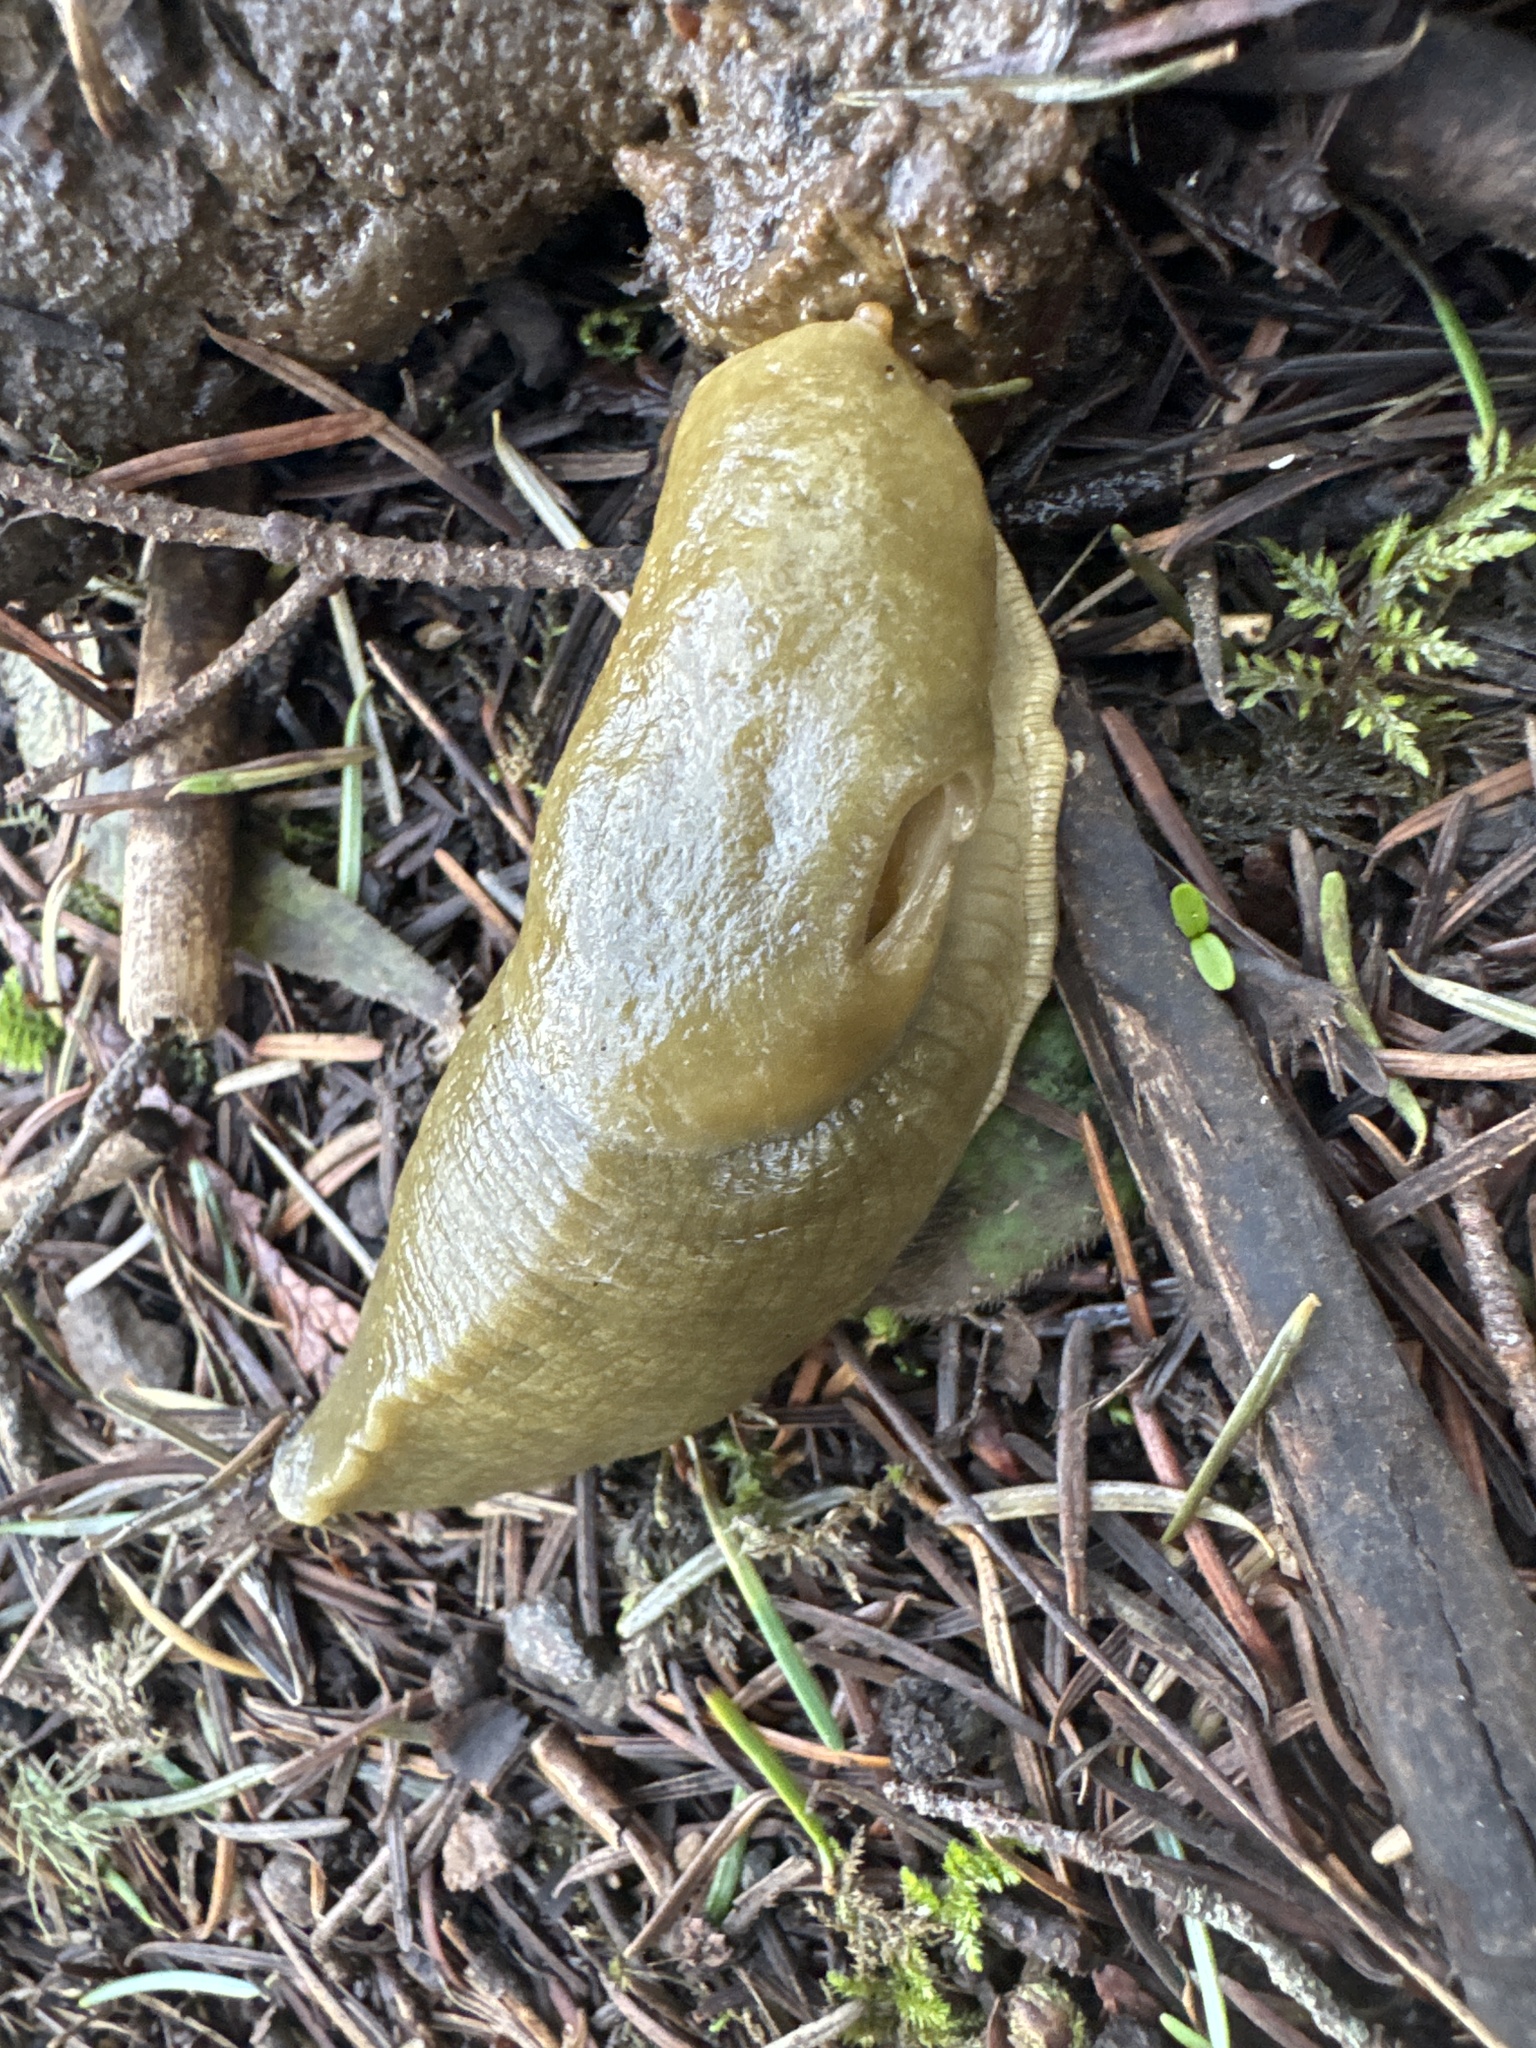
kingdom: Animalia
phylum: Mollusca
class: Gastropoda
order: Stylommatophora
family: Ariolimacidae
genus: Ariolimax
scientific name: Ariolimax columbianus
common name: Pacific banana slug
